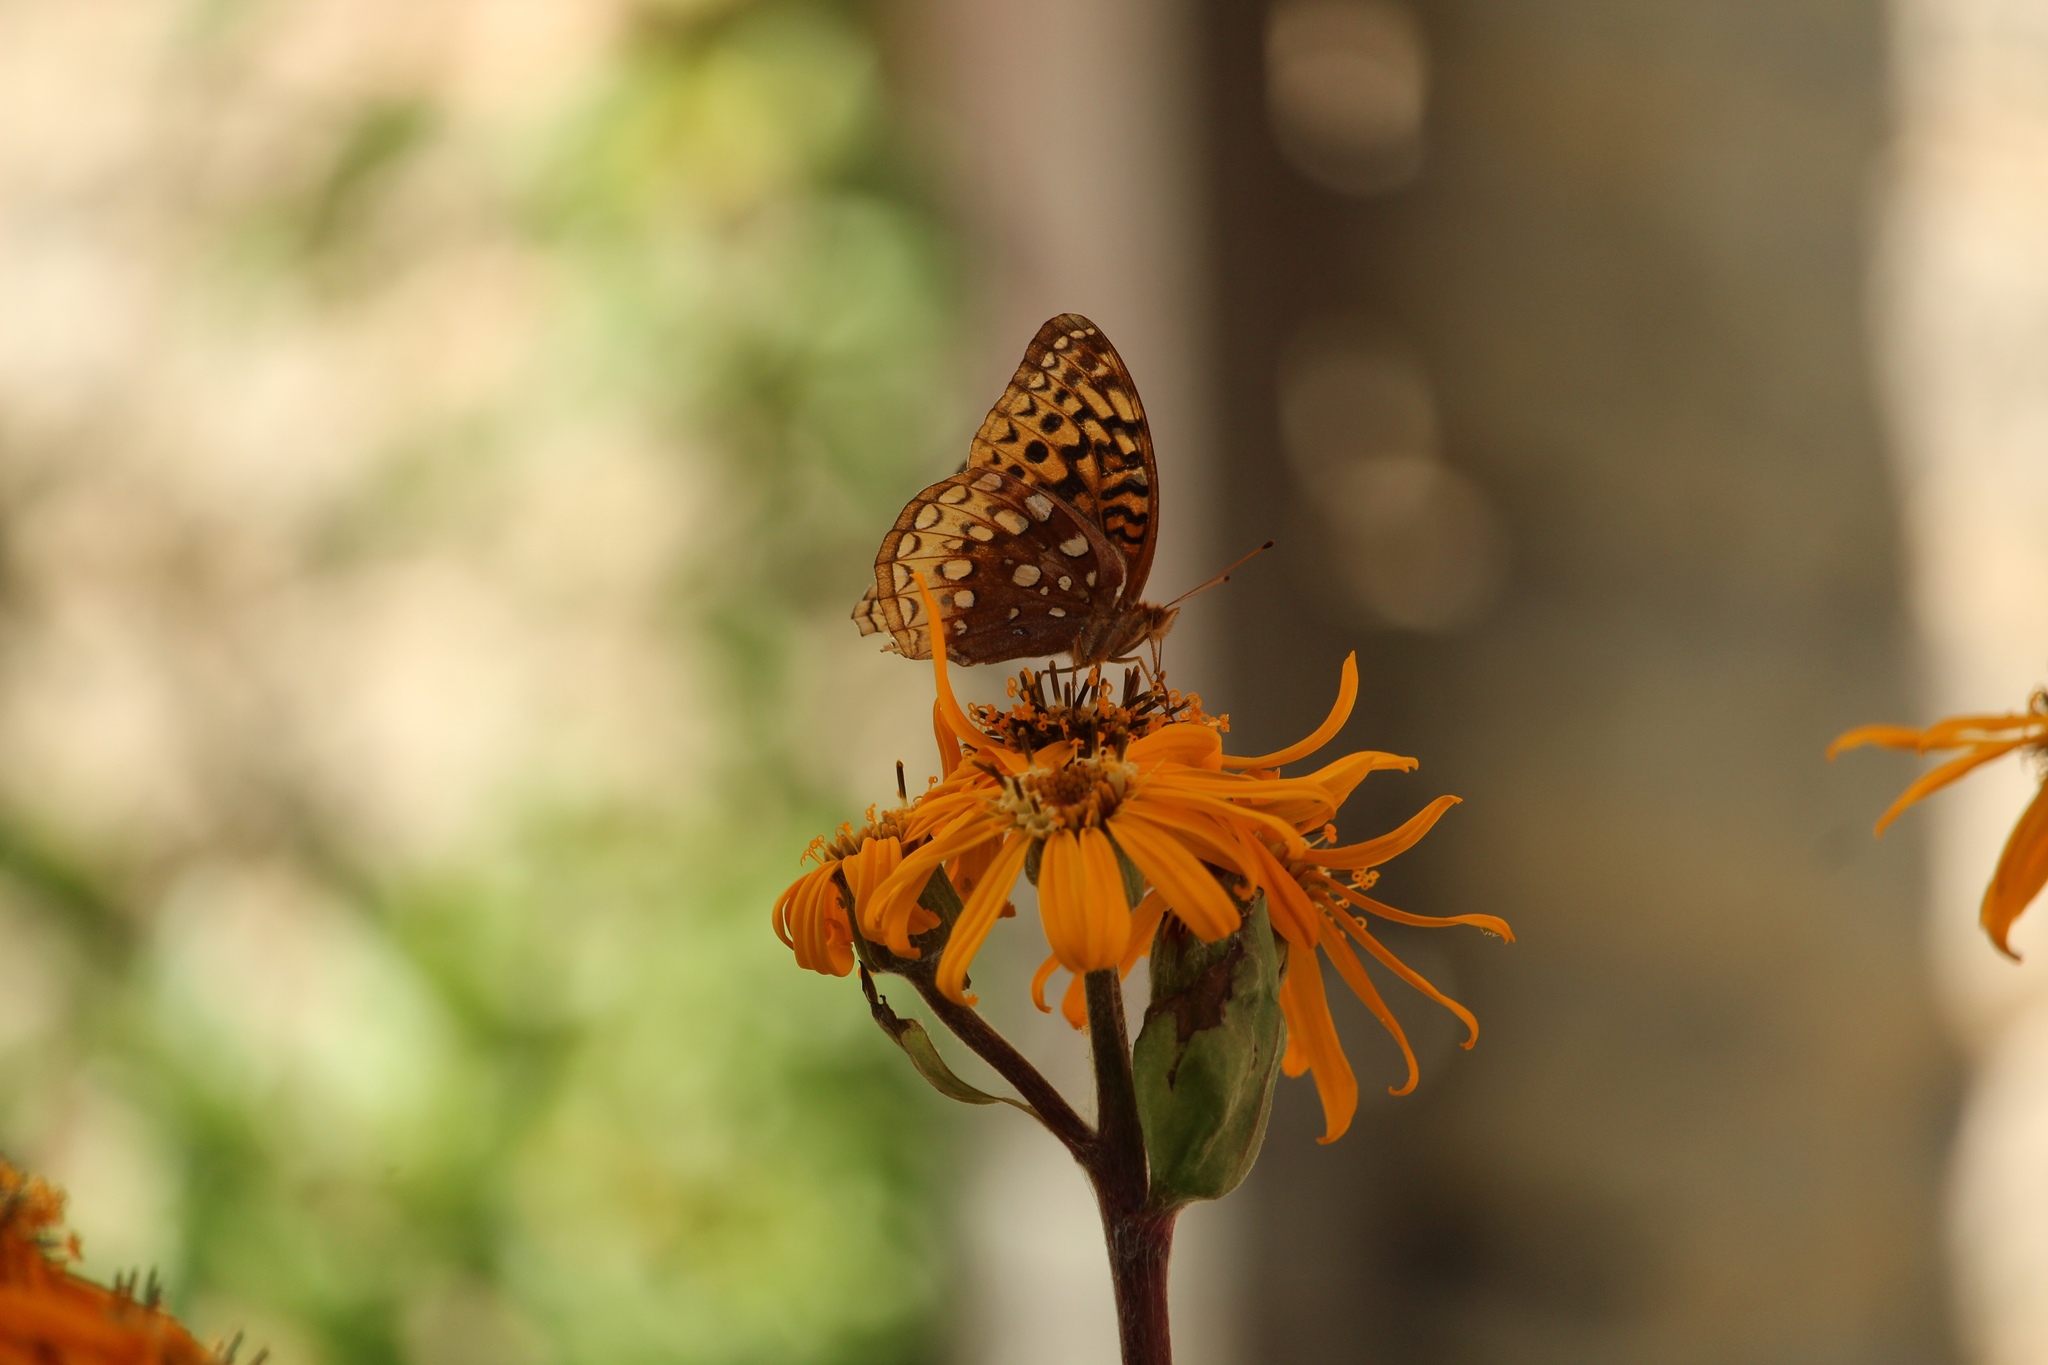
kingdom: Animalia
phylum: Arthropoda
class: Insecta
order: Lepidoptera
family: Nymphalidae
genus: Speyeria
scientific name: Speyeria cybele
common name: Great spangled fritillary
